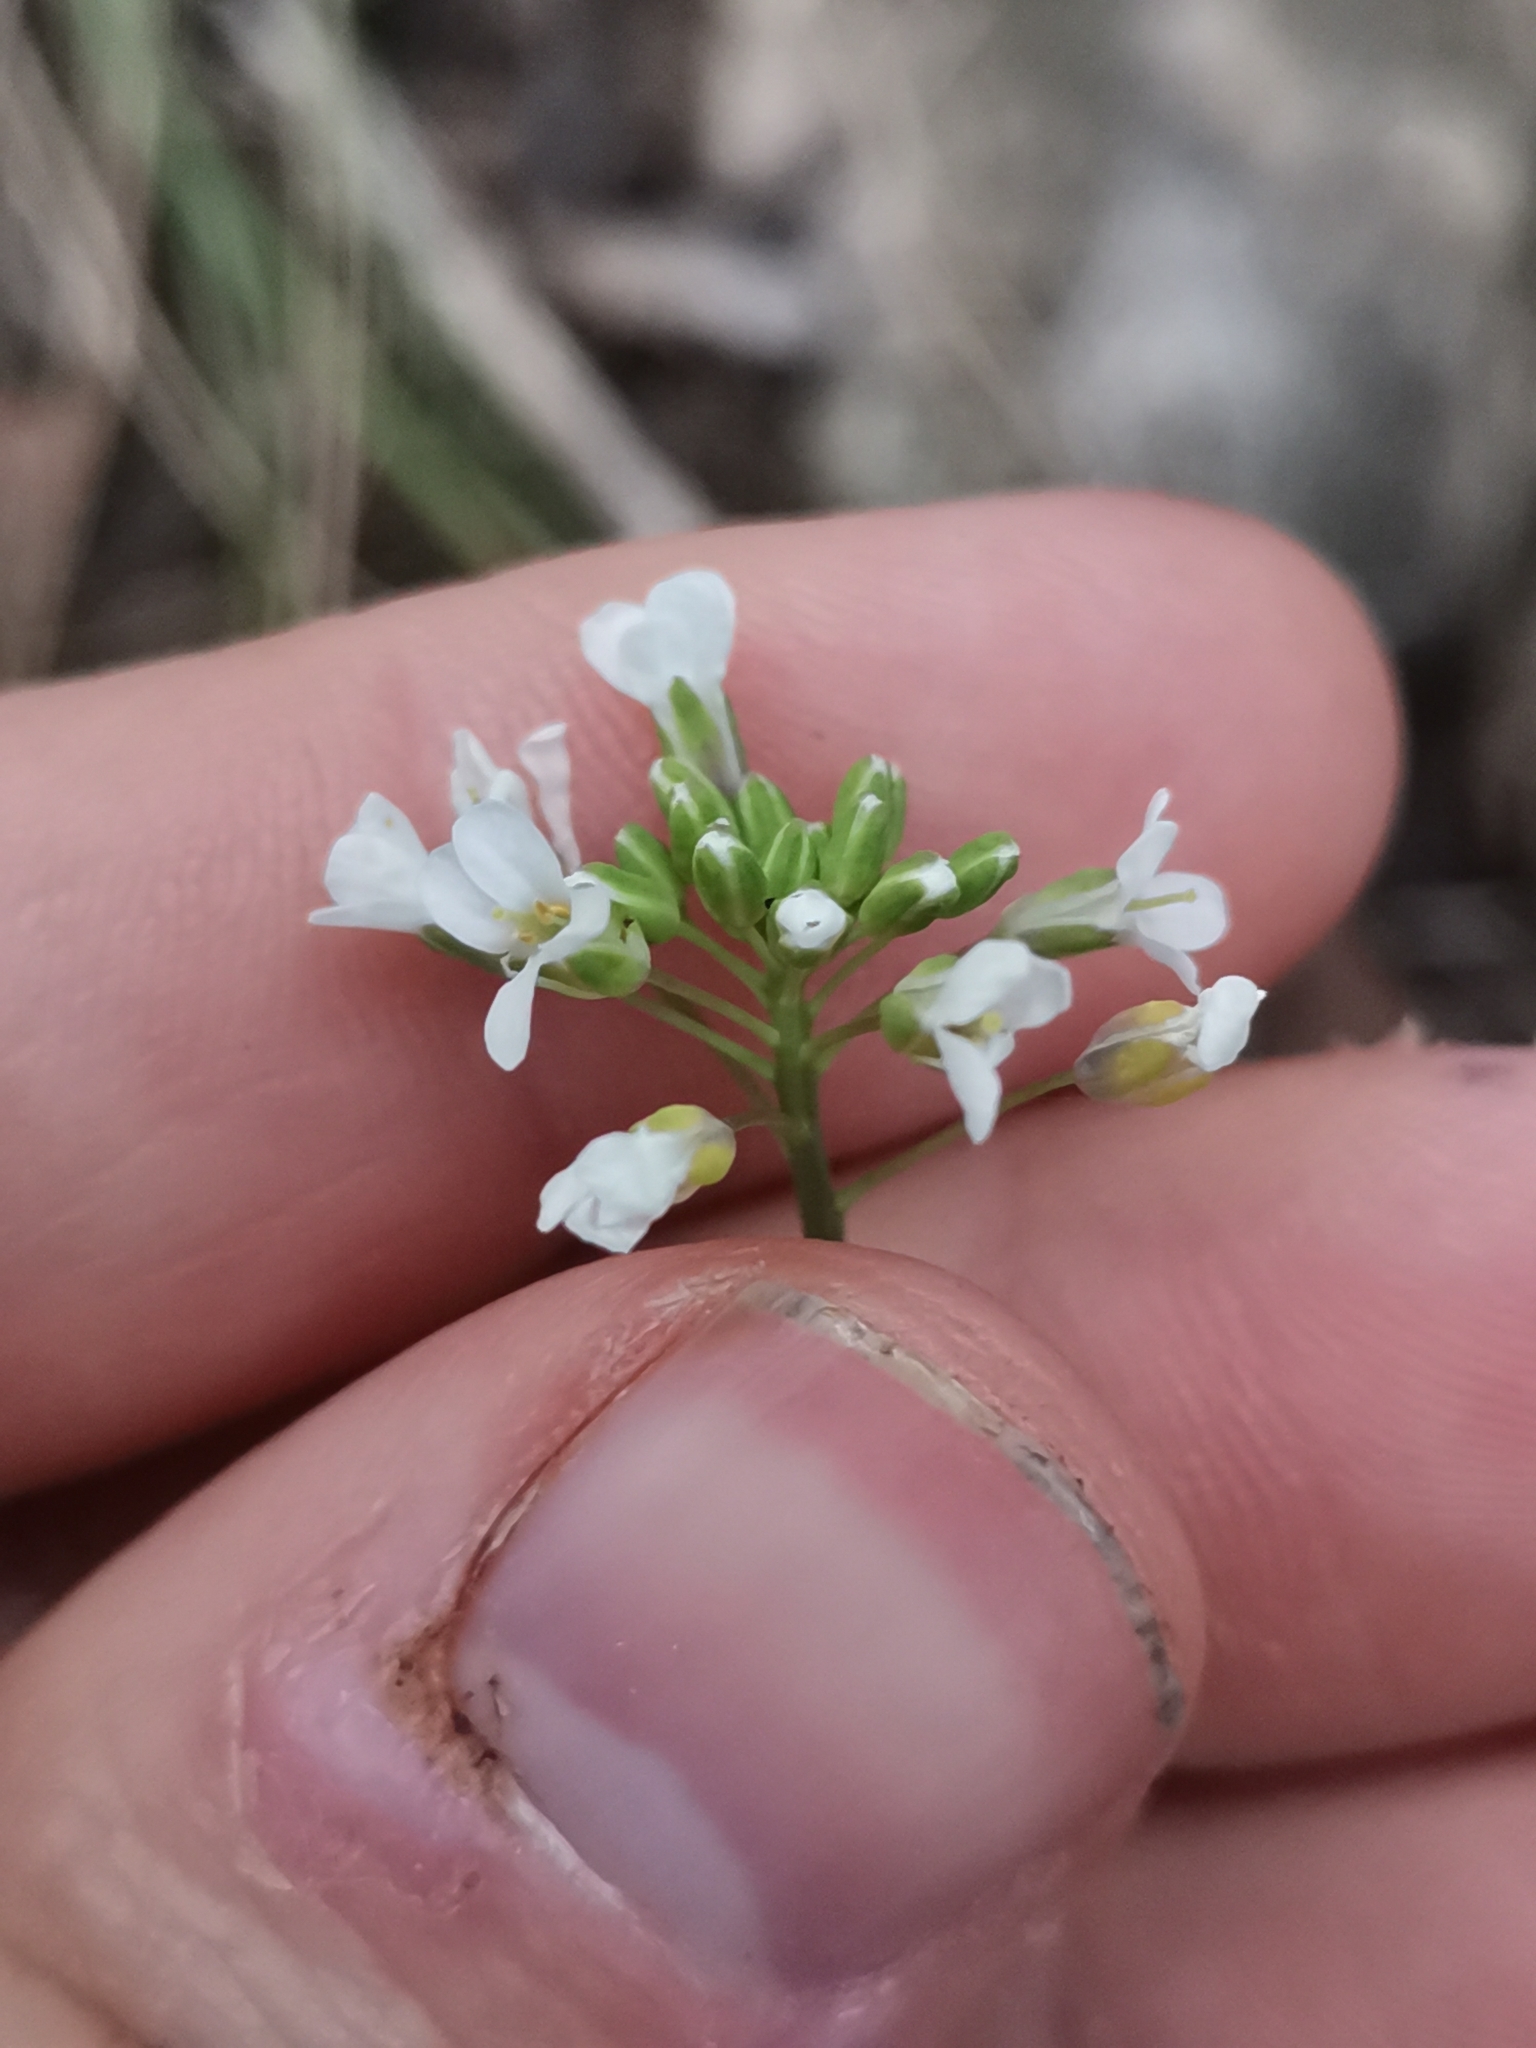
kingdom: Plantae
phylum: Tracheophyta
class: Magnoliopsida
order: Brassicales
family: Brassicaceae
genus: Noccaea
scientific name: Noccaea perfoliata
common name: Perfoliate pennycress
